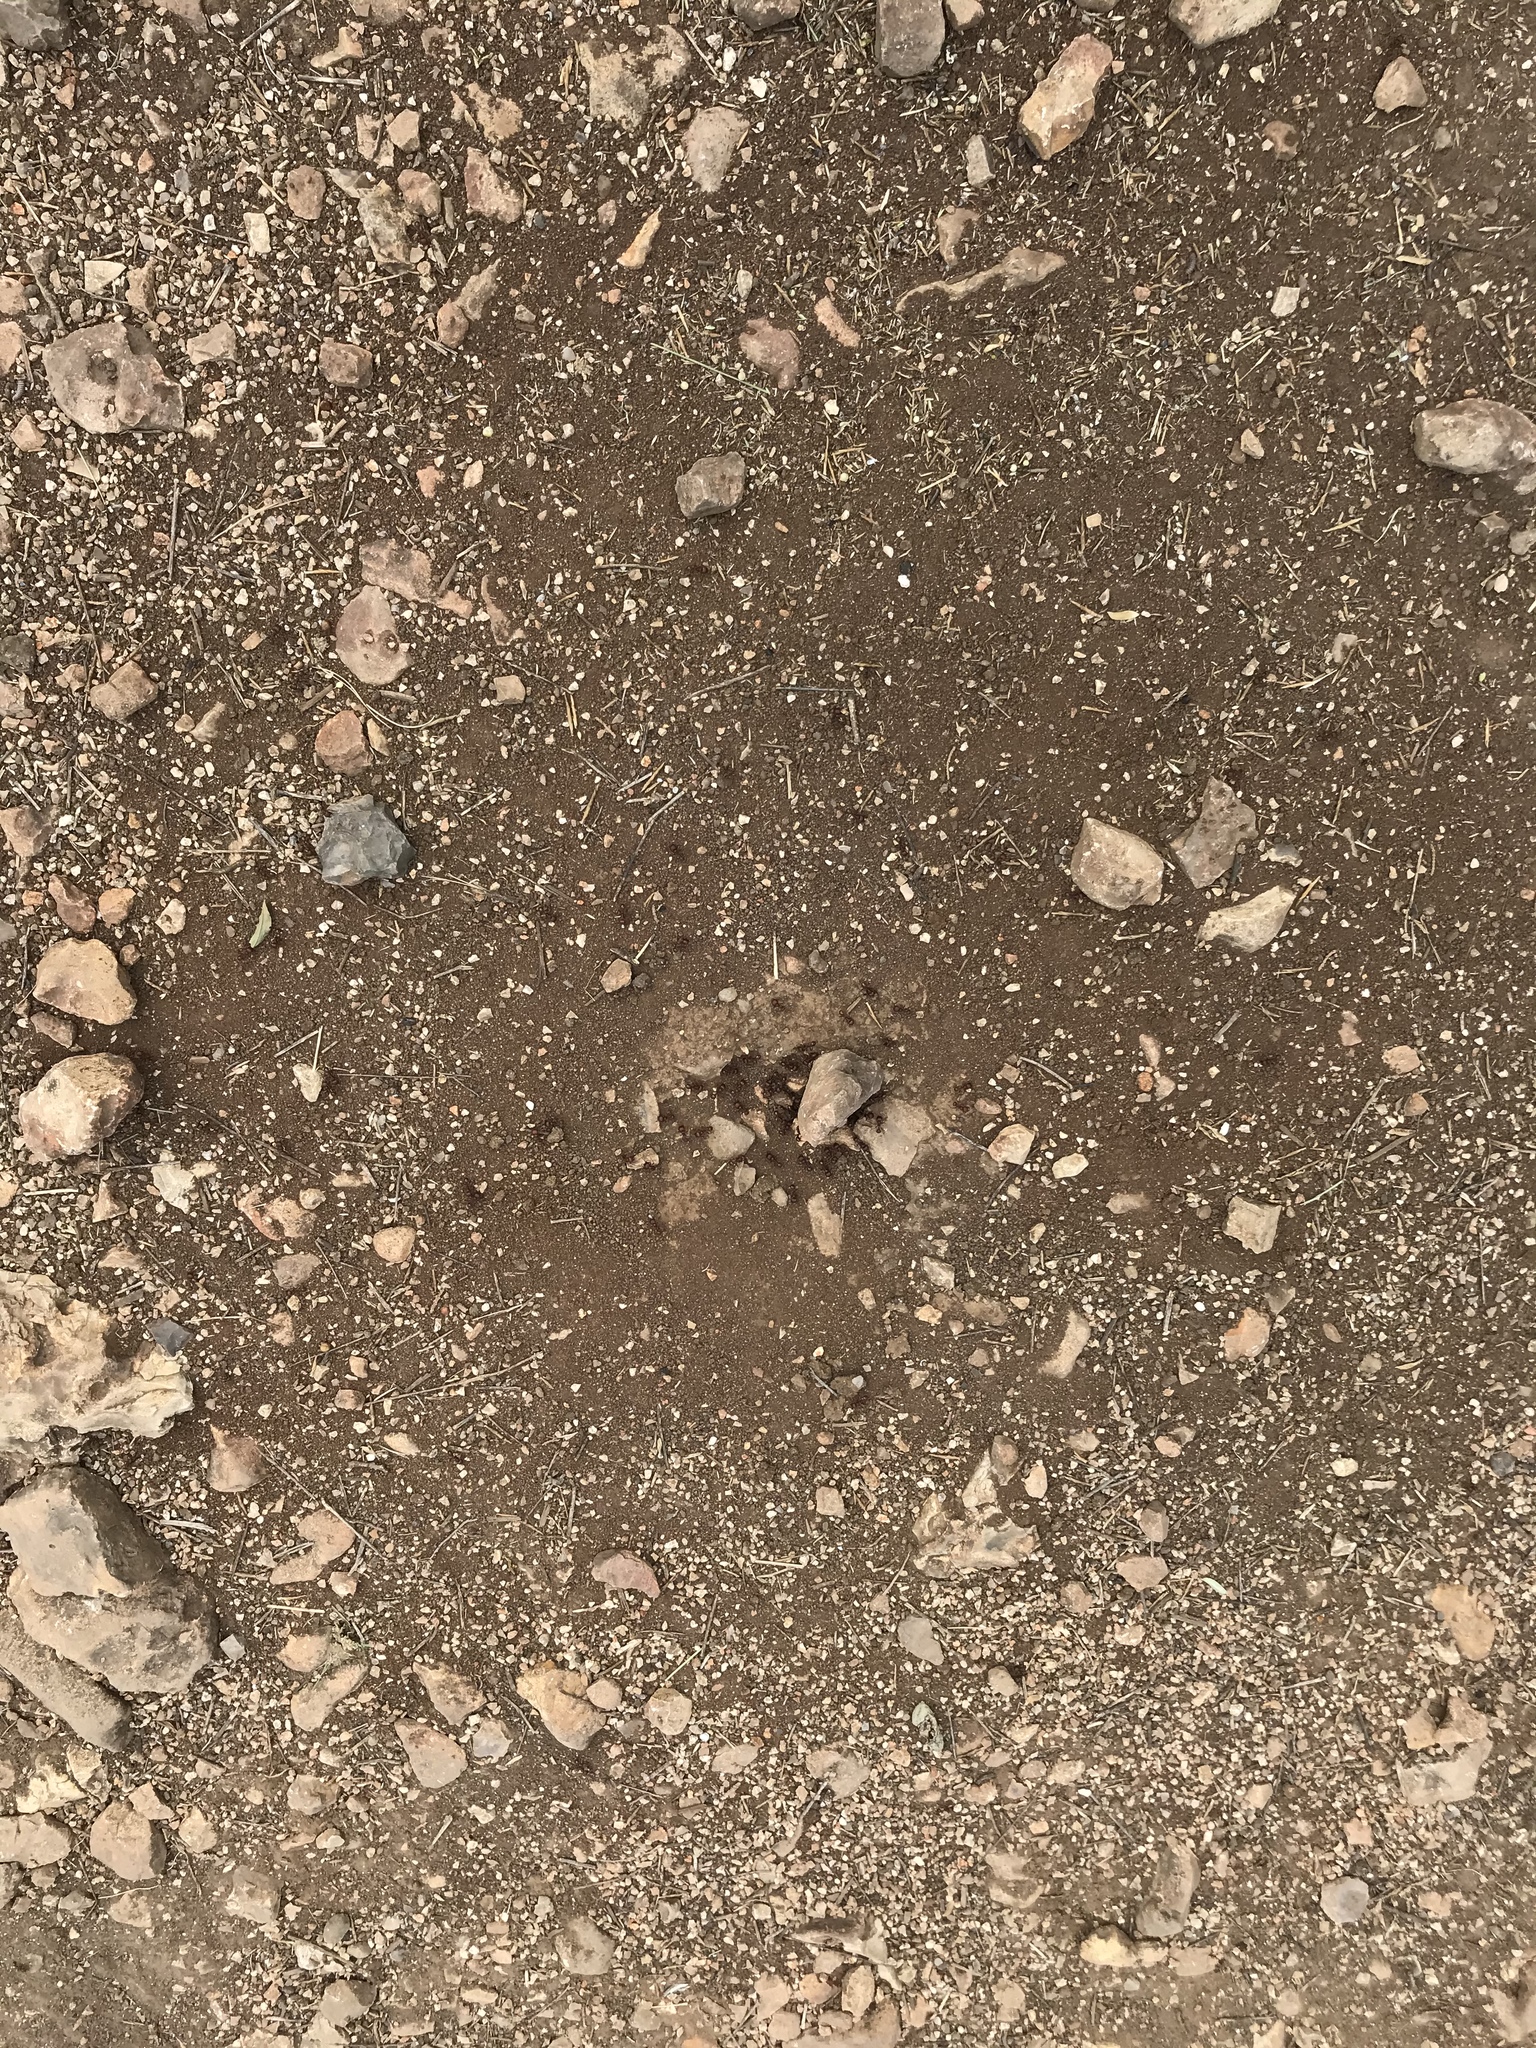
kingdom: Animalia
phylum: Arthropoda
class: Insecta
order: Hymenoptera
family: Formicidae
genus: Pogonomyrmex
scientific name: Pogonomyrmex barbatus
